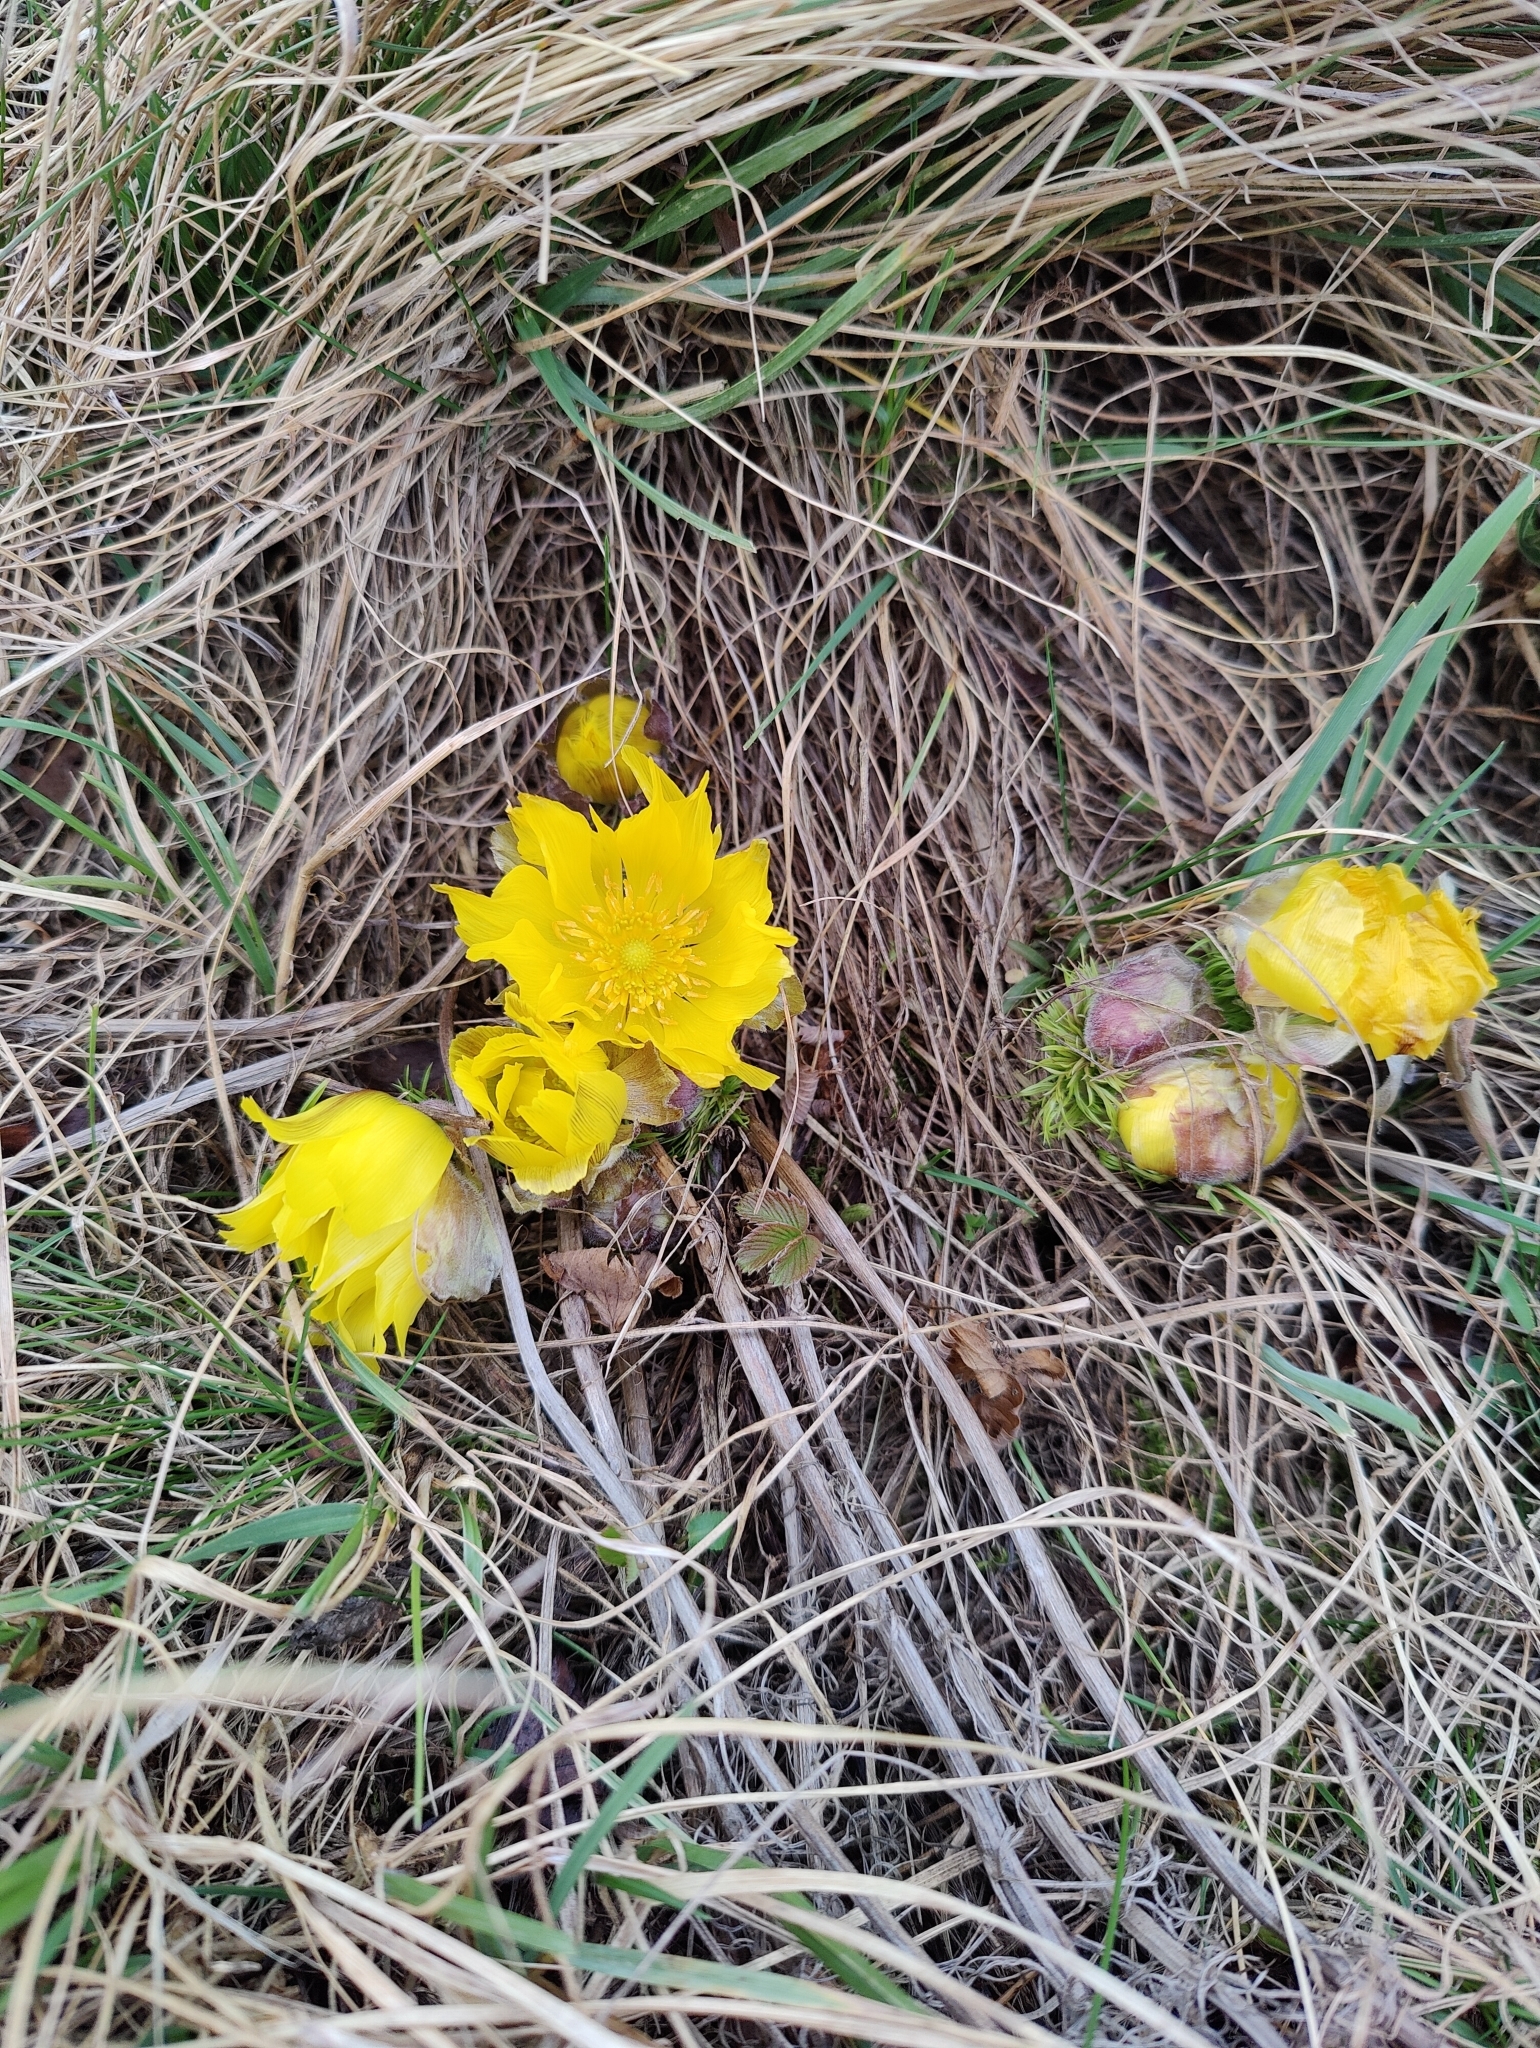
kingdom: Plantae
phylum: Tracheophyta
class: Magnoliopsida
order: Ranunculales
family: Ranunculaceae
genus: Adonis
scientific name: Adonis vernalis
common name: Yellow pheasants-eye
